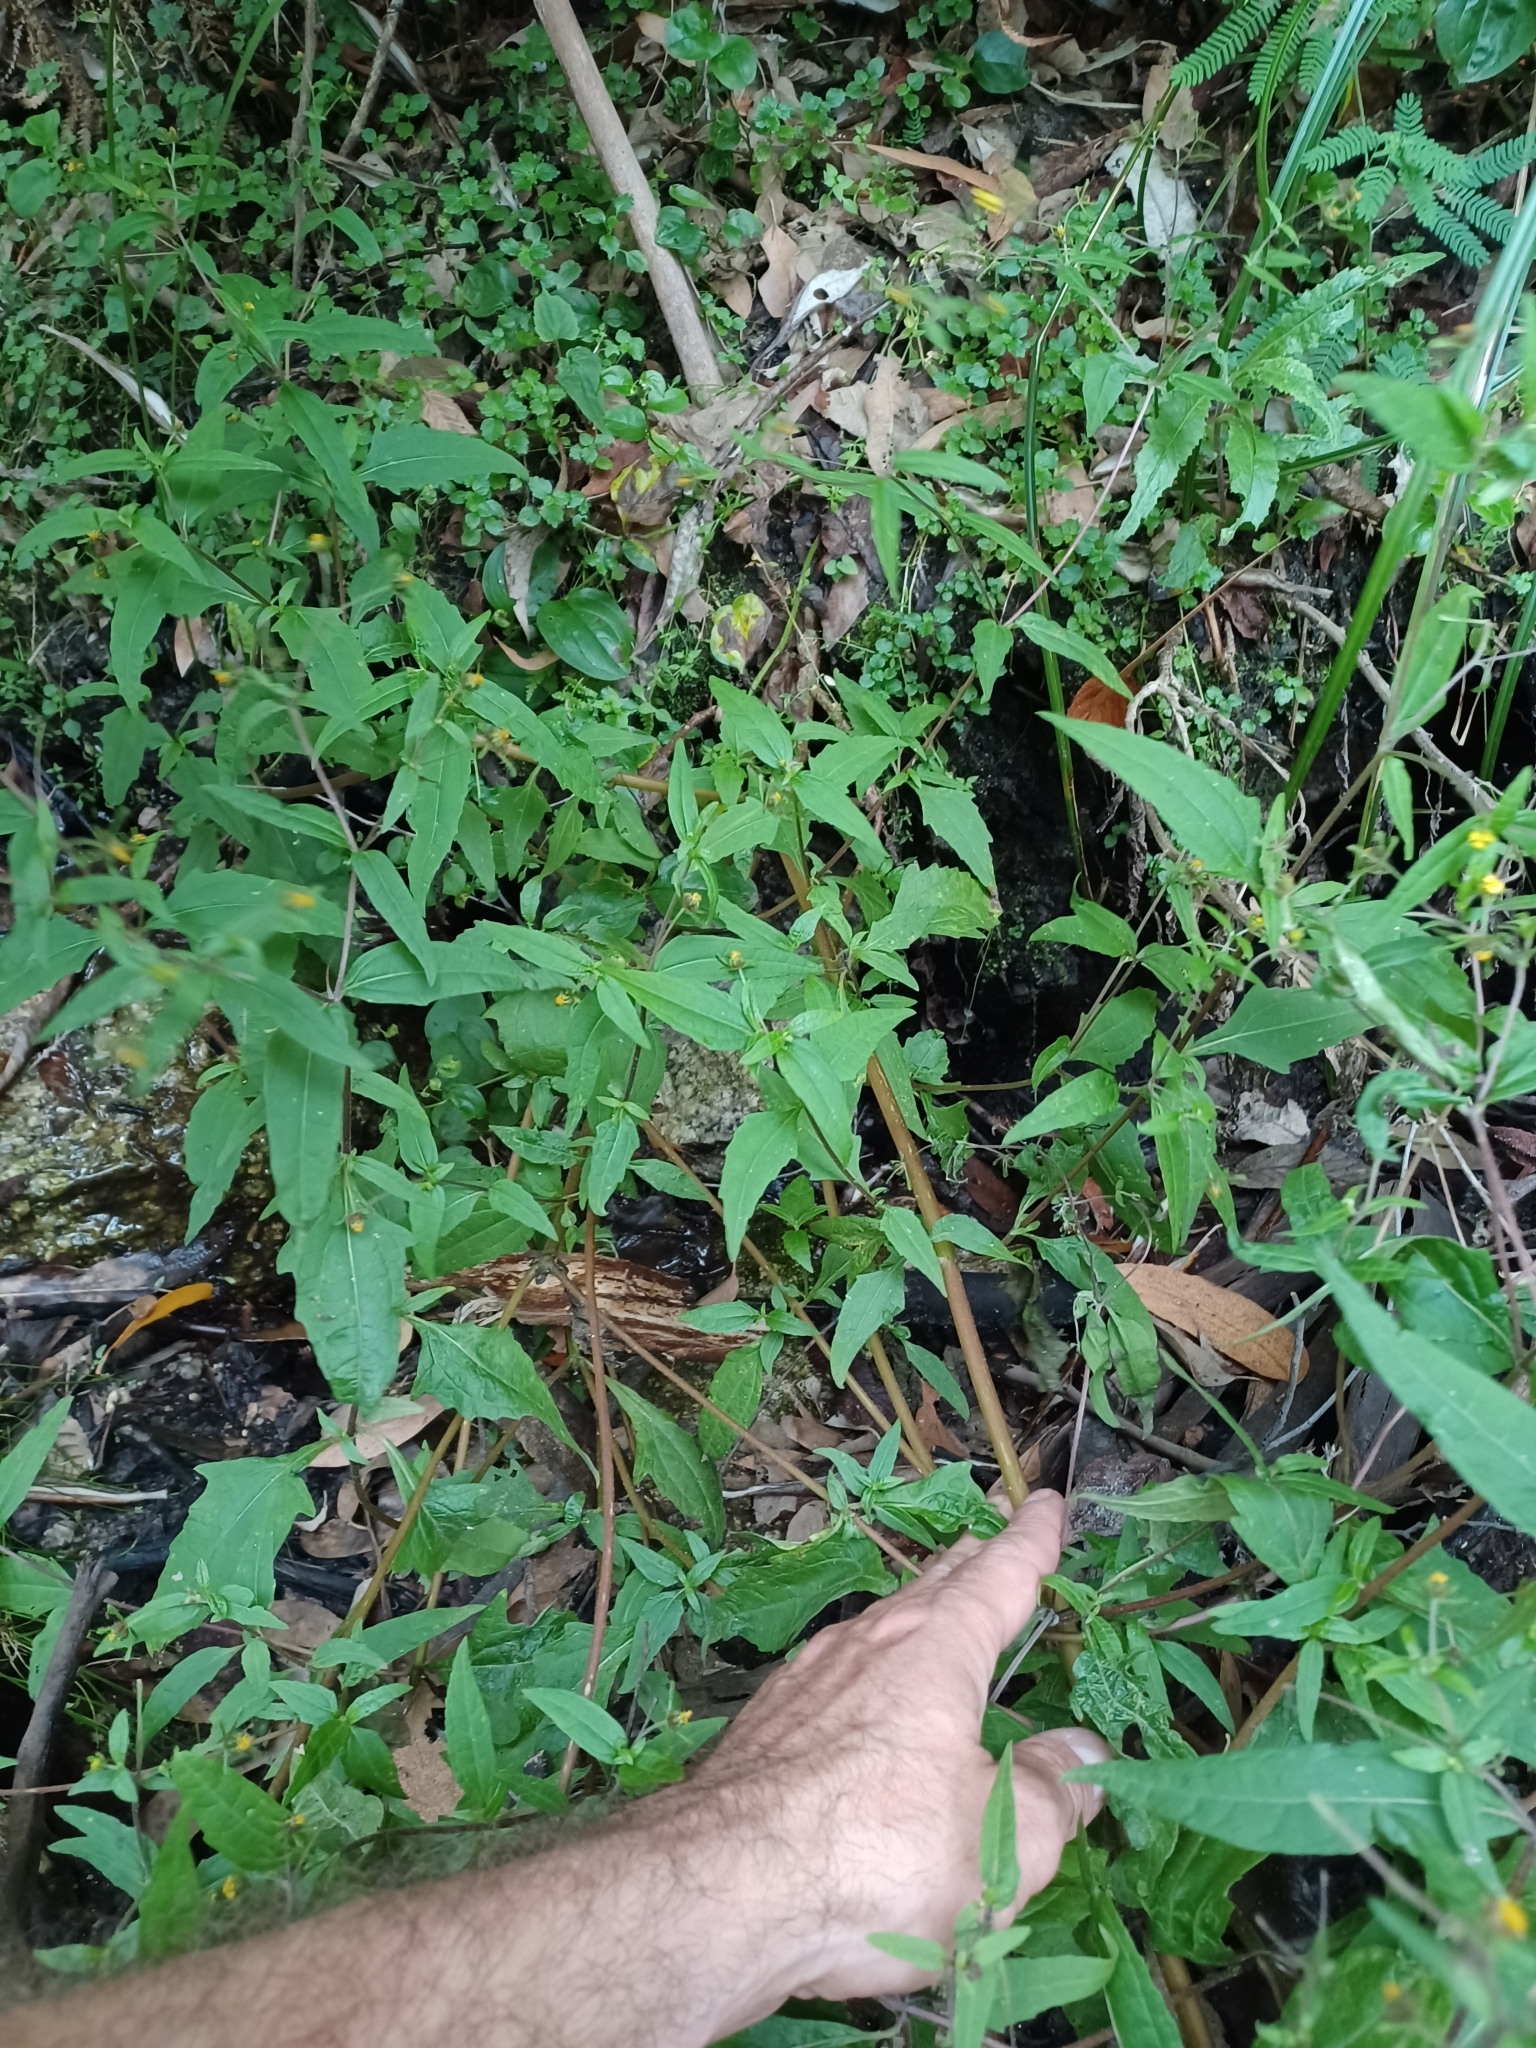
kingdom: Plantae
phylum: Tracheophyta
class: Magnoliopsida
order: Asterales
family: Asteraceae
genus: Sigesbeckia
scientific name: Sigesbeckia orientalis
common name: Eastern st paul's-wort
